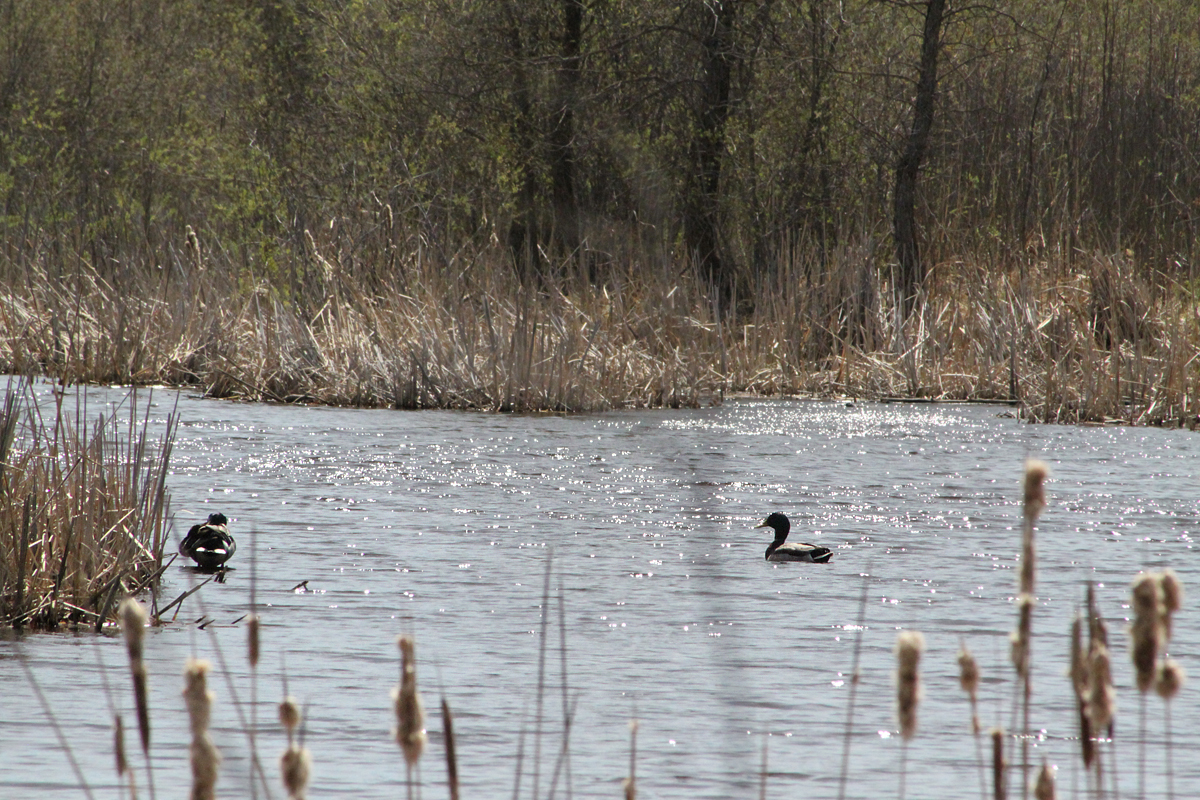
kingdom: Animalia
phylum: Chordata
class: Aves
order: Anseriformes
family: Anatidae
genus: Anas
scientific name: Anas platyrhynchos
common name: Mallard
